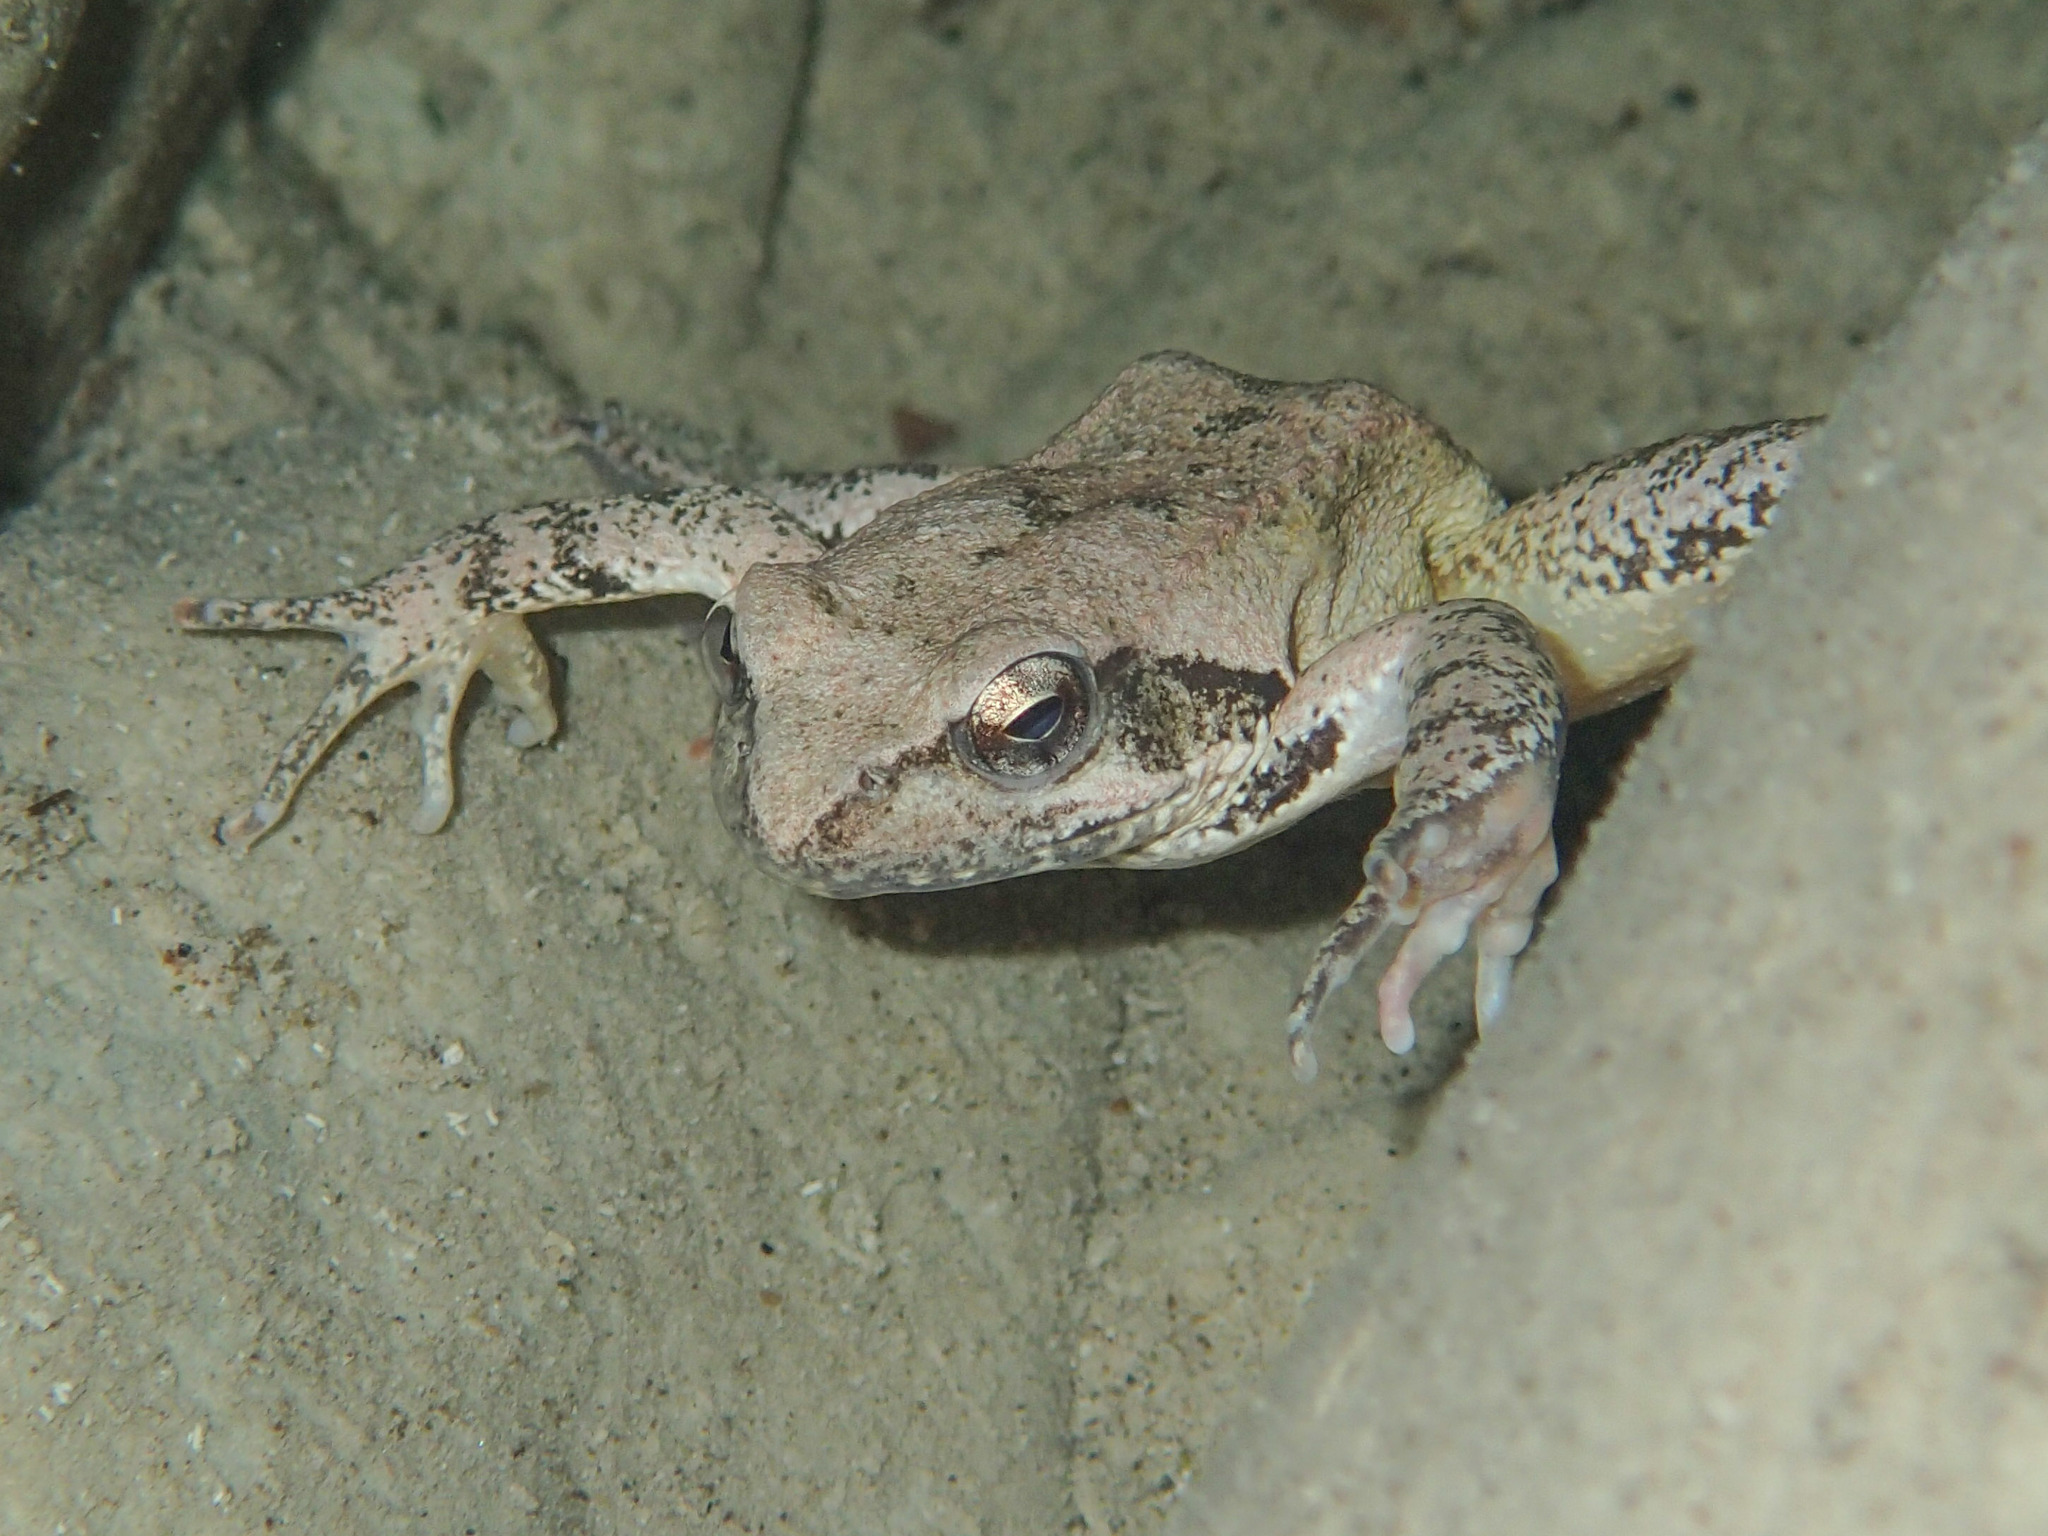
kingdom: Animalia
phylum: Chordata
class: Amphibia
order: Anura
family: Ranidae
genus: Rana
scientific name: Rana italica
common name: Italian stream frog
